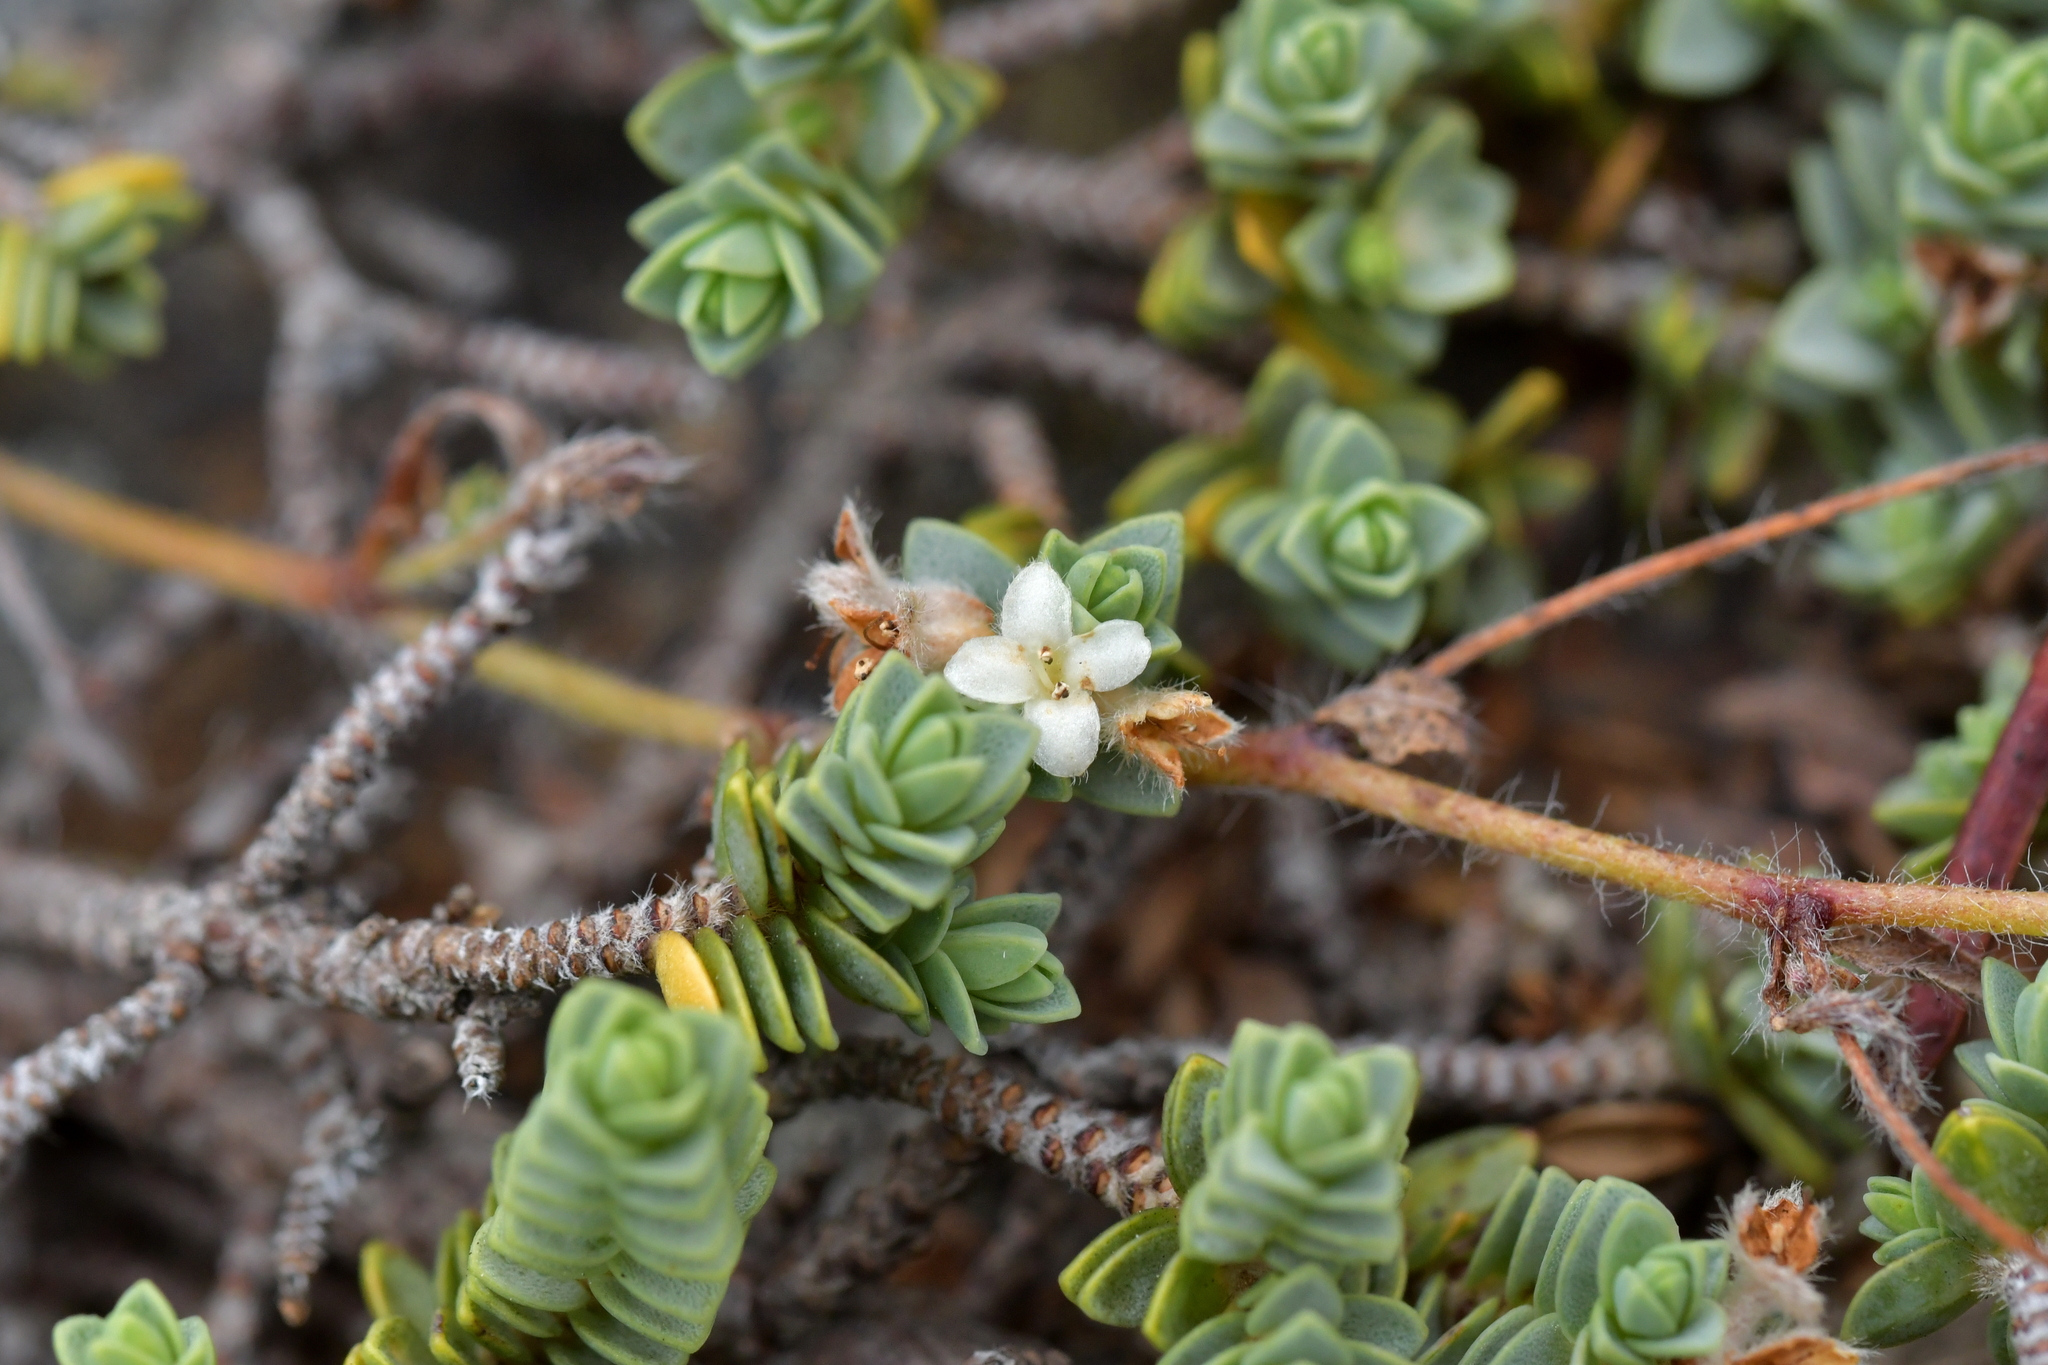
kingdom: Plantae
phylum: Tracheophyta
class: Magnoliopsida
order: Malvales
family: Thymelaeaceae
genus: Pimelea
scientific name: Pimelea carnosa
